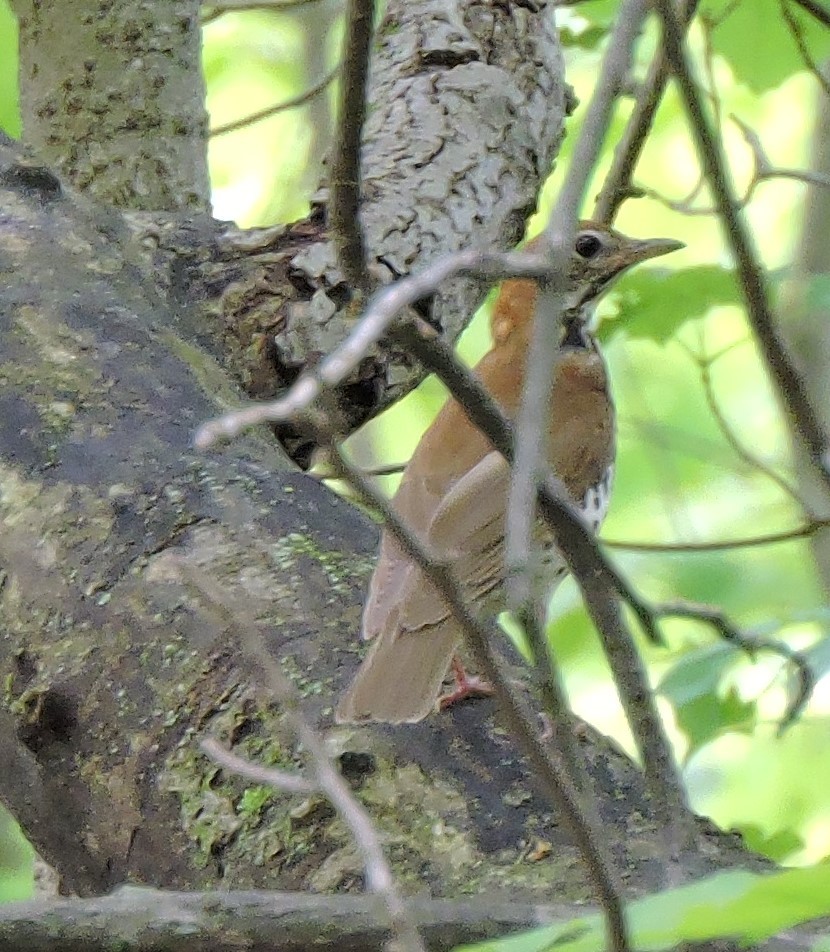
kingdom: Animalia
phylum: Chordata
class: Aves
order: Passeriformes
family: Turdidae
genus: Hylocichla
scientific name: Hylocichla mustelina
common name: Wood thrush
